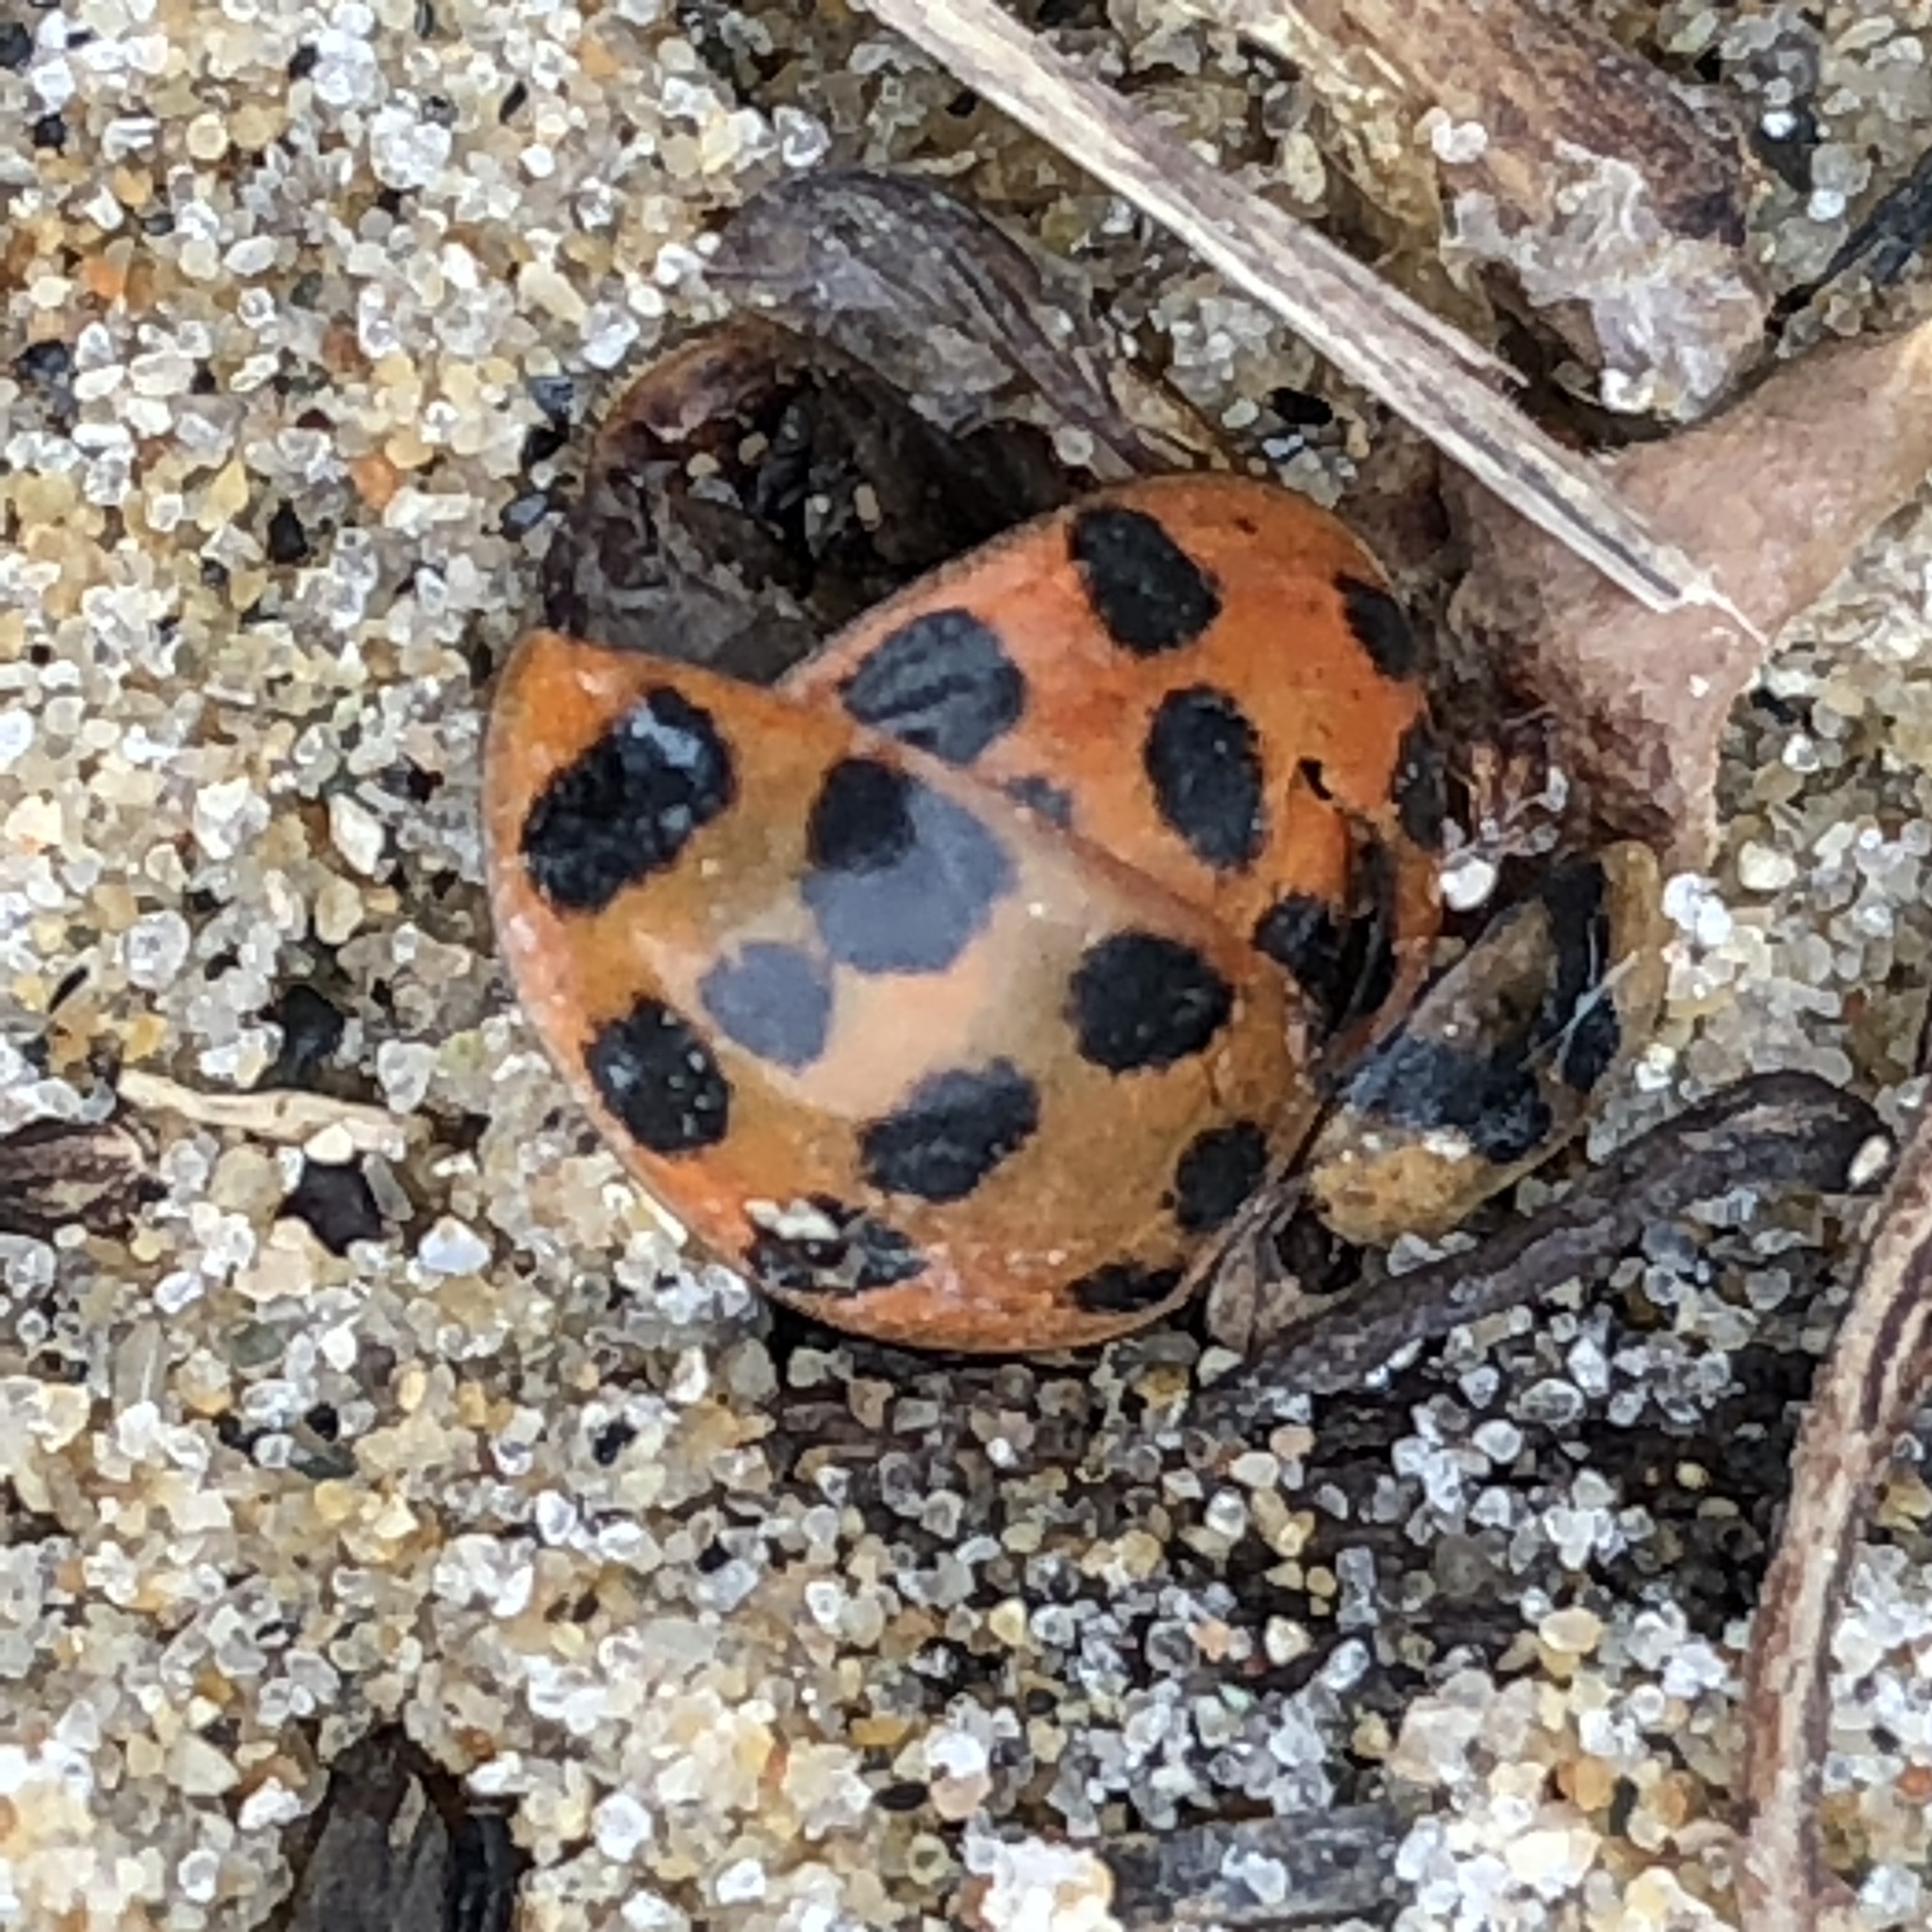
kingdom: Animalia
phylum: Arthropoda
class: Insecta
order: Coleoptera
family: Coccinellidae
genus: Harmonia
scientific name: Harmonia axyridis
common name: Harlequin ladybird
